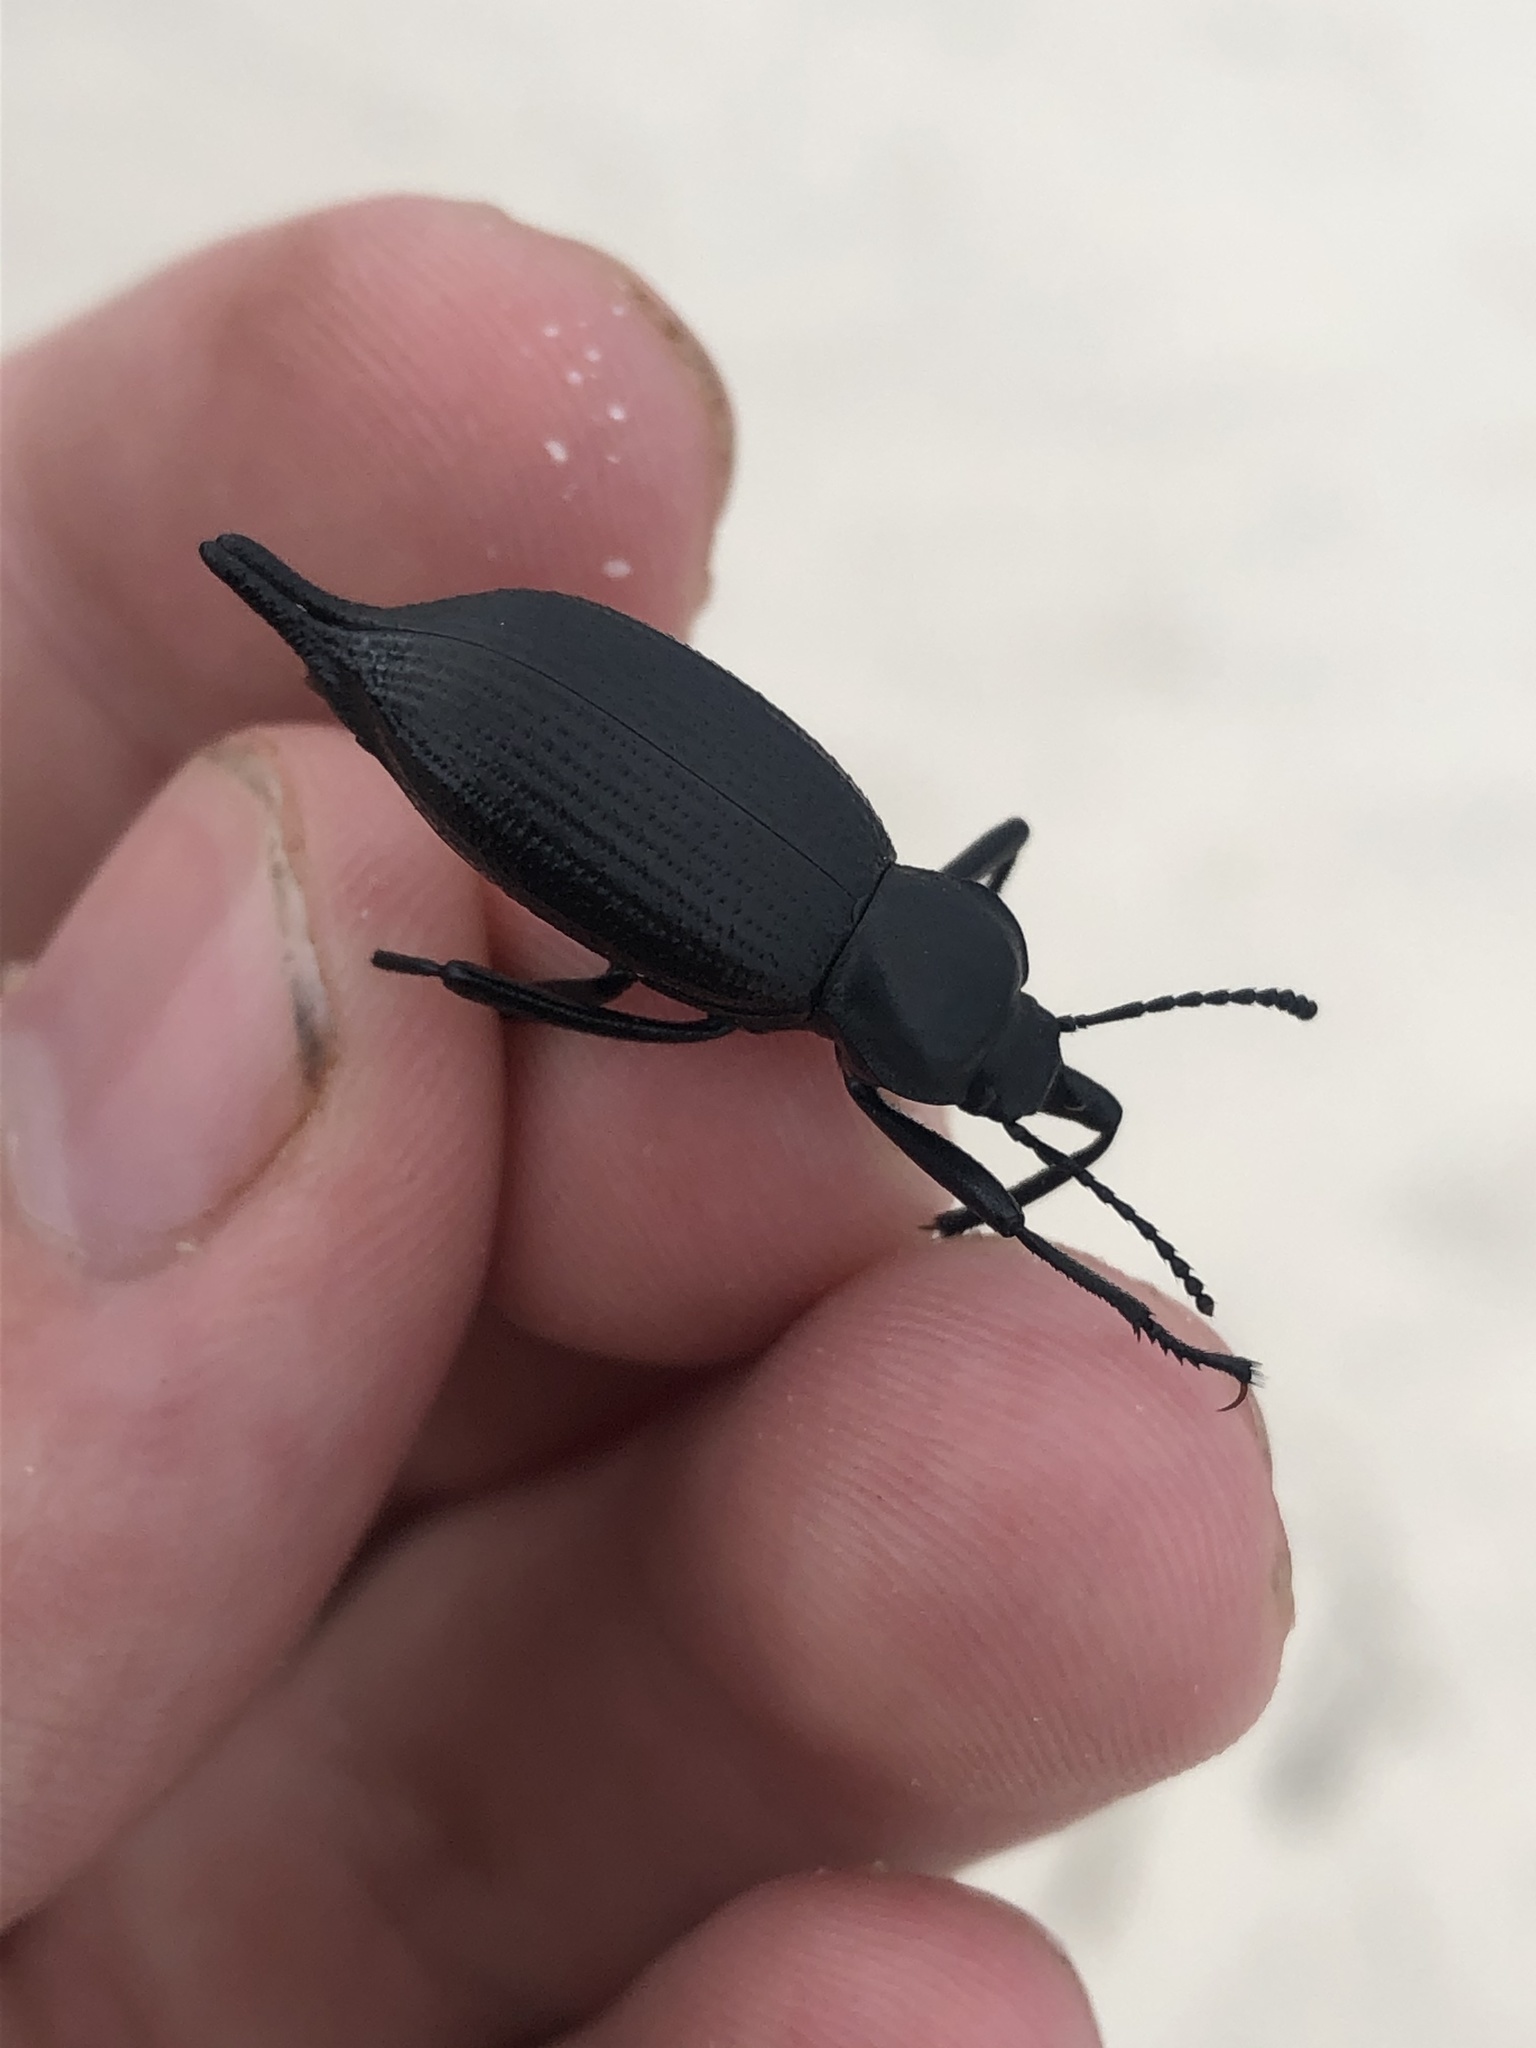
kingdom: Animalia
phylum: Arthropoda
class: Insecta
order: Coleoptera
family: Tenebrionidae
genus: Eleodes
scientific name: Eleodes caudifera
